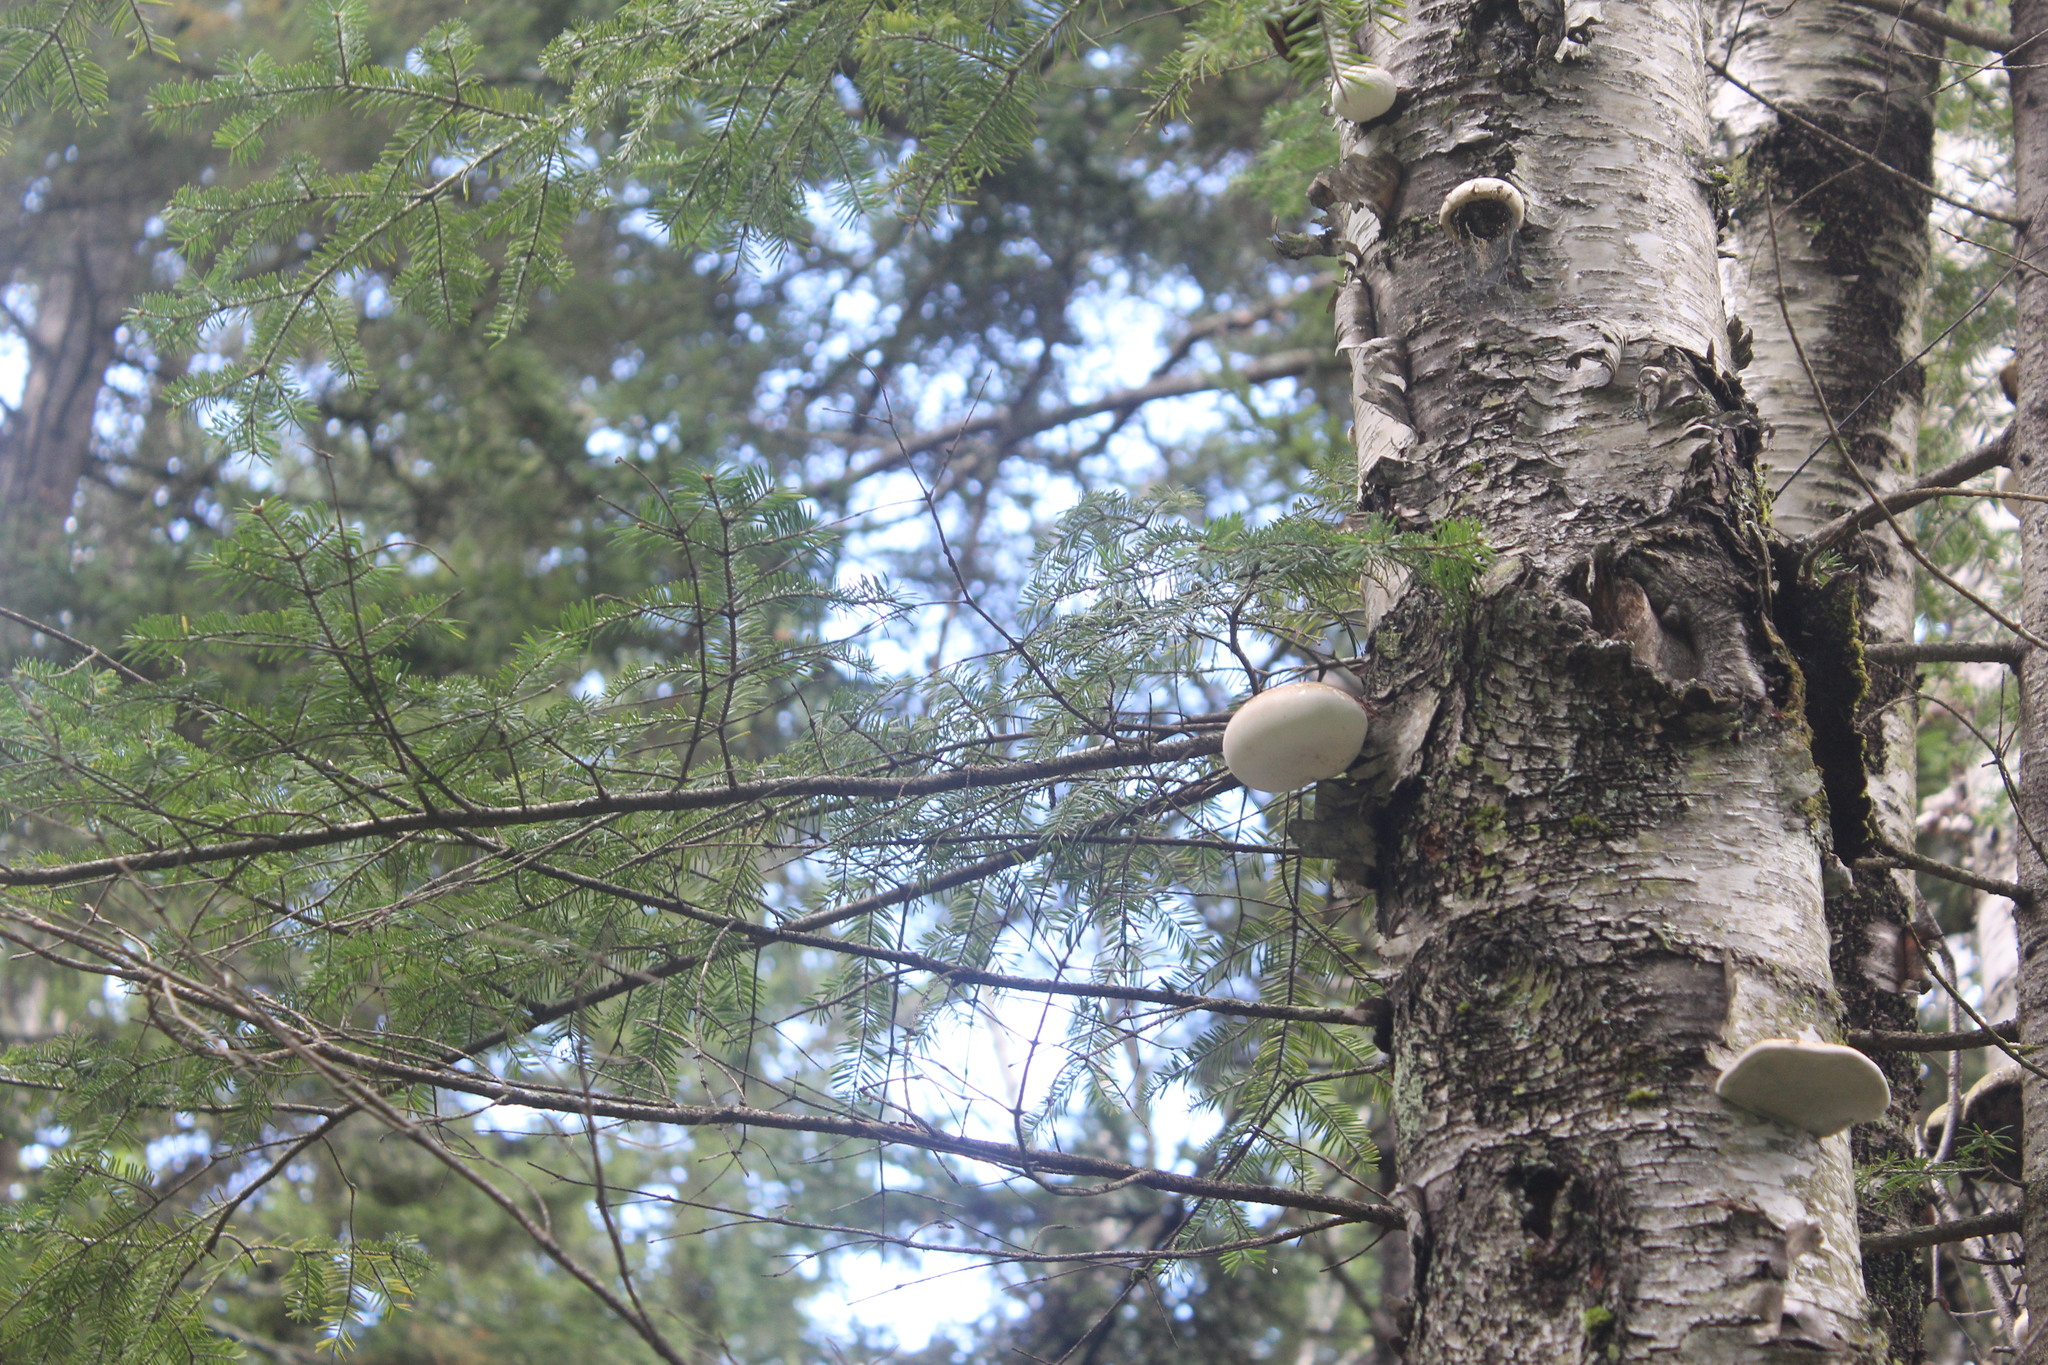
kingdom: Fungi
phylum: Basidiomycota
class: Agaricomycetes
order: Polyporales
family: Fomitopsidaceae
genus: Fomitopsis
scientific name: Fomitopsis betulina
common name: Birch polypore
